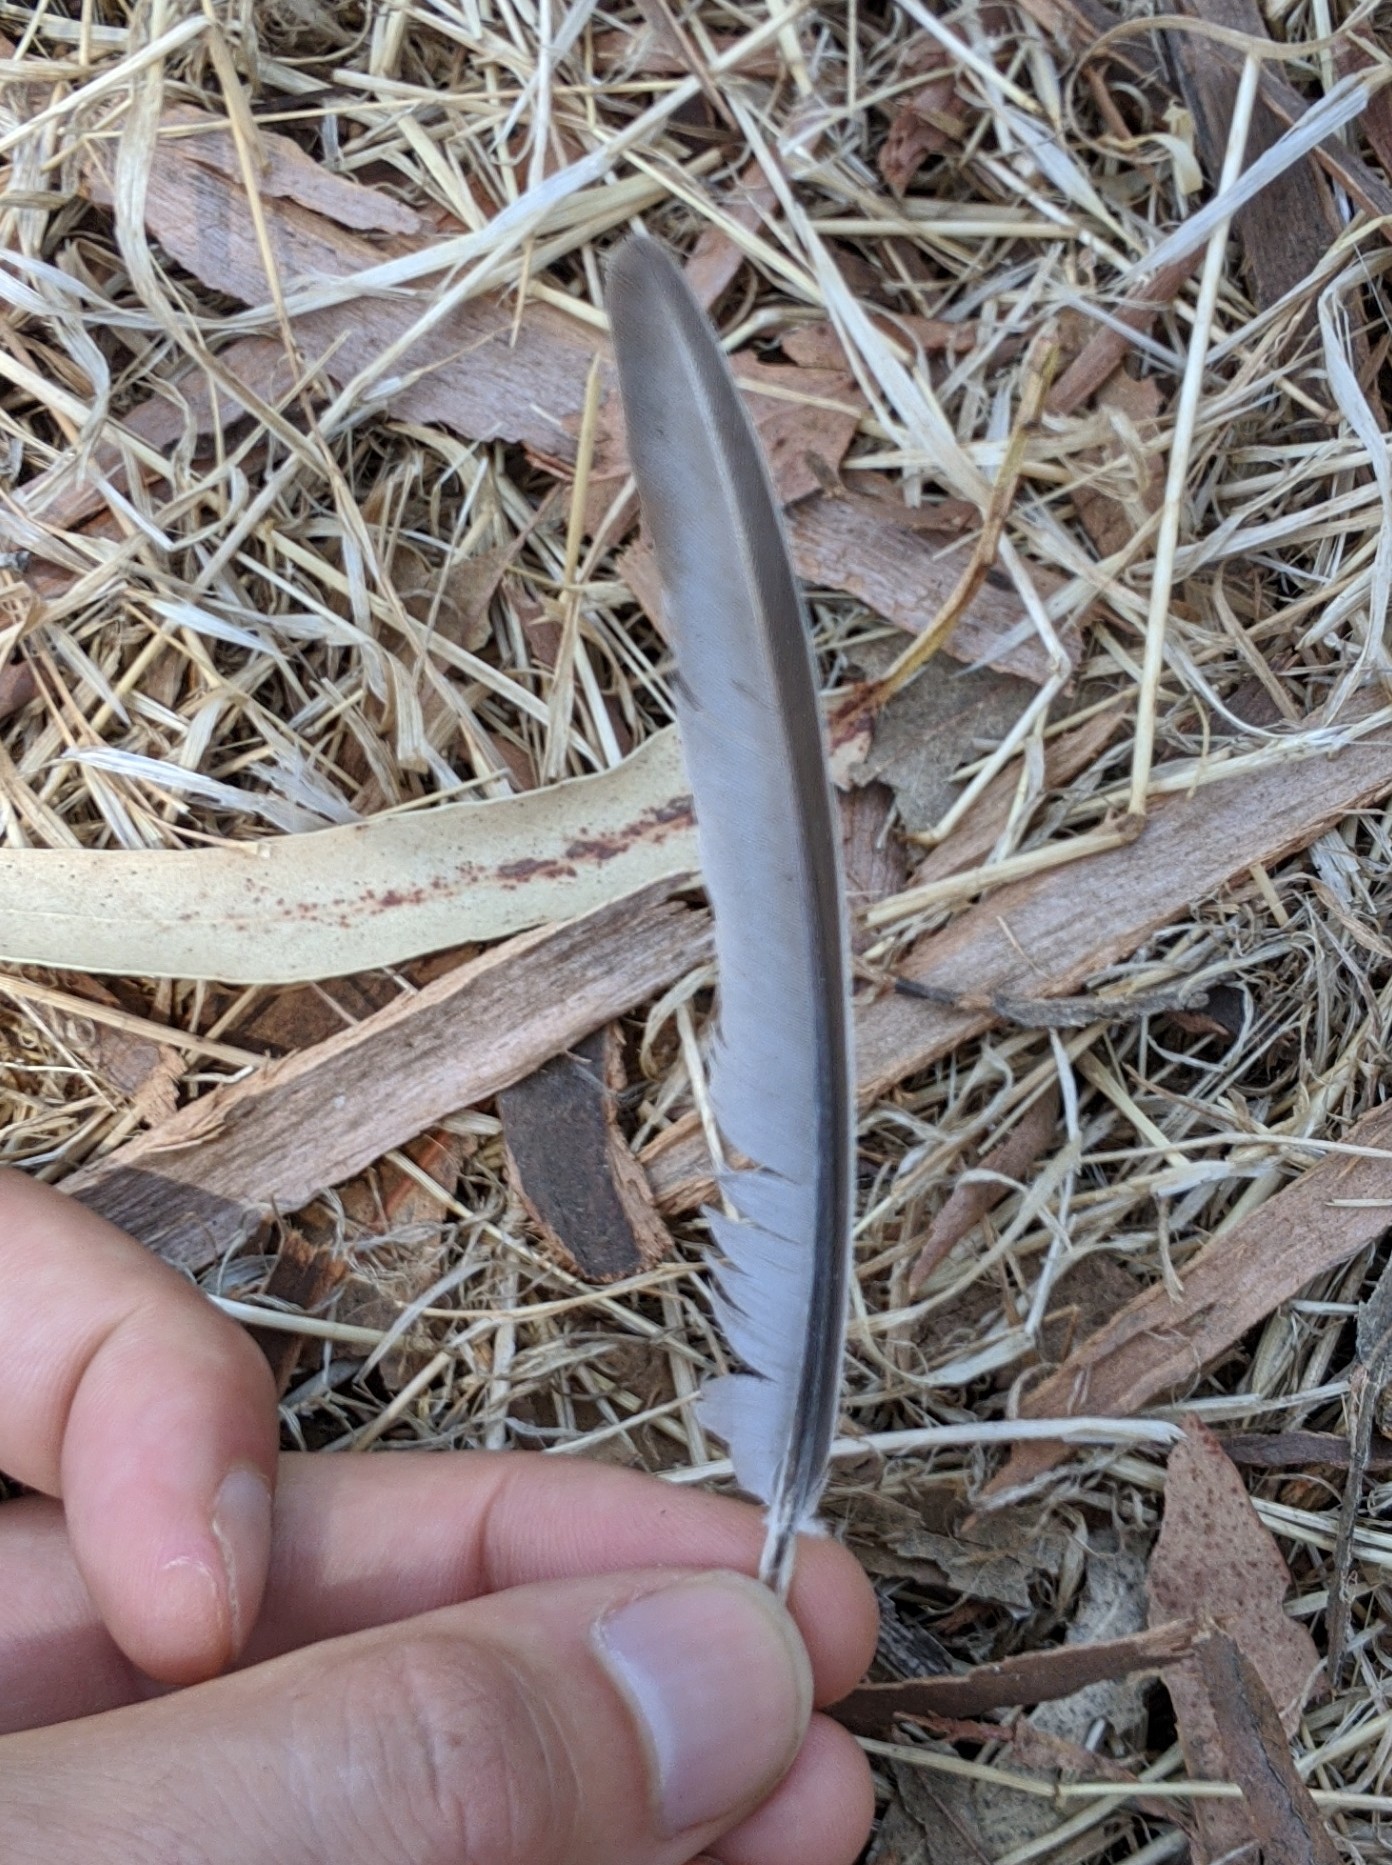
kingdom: Animalia
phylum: Chordata
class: Aves
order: Columbiformes
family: Columbidae
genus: Zenaida
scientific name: Zenaida macroura
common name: Mourning dove
